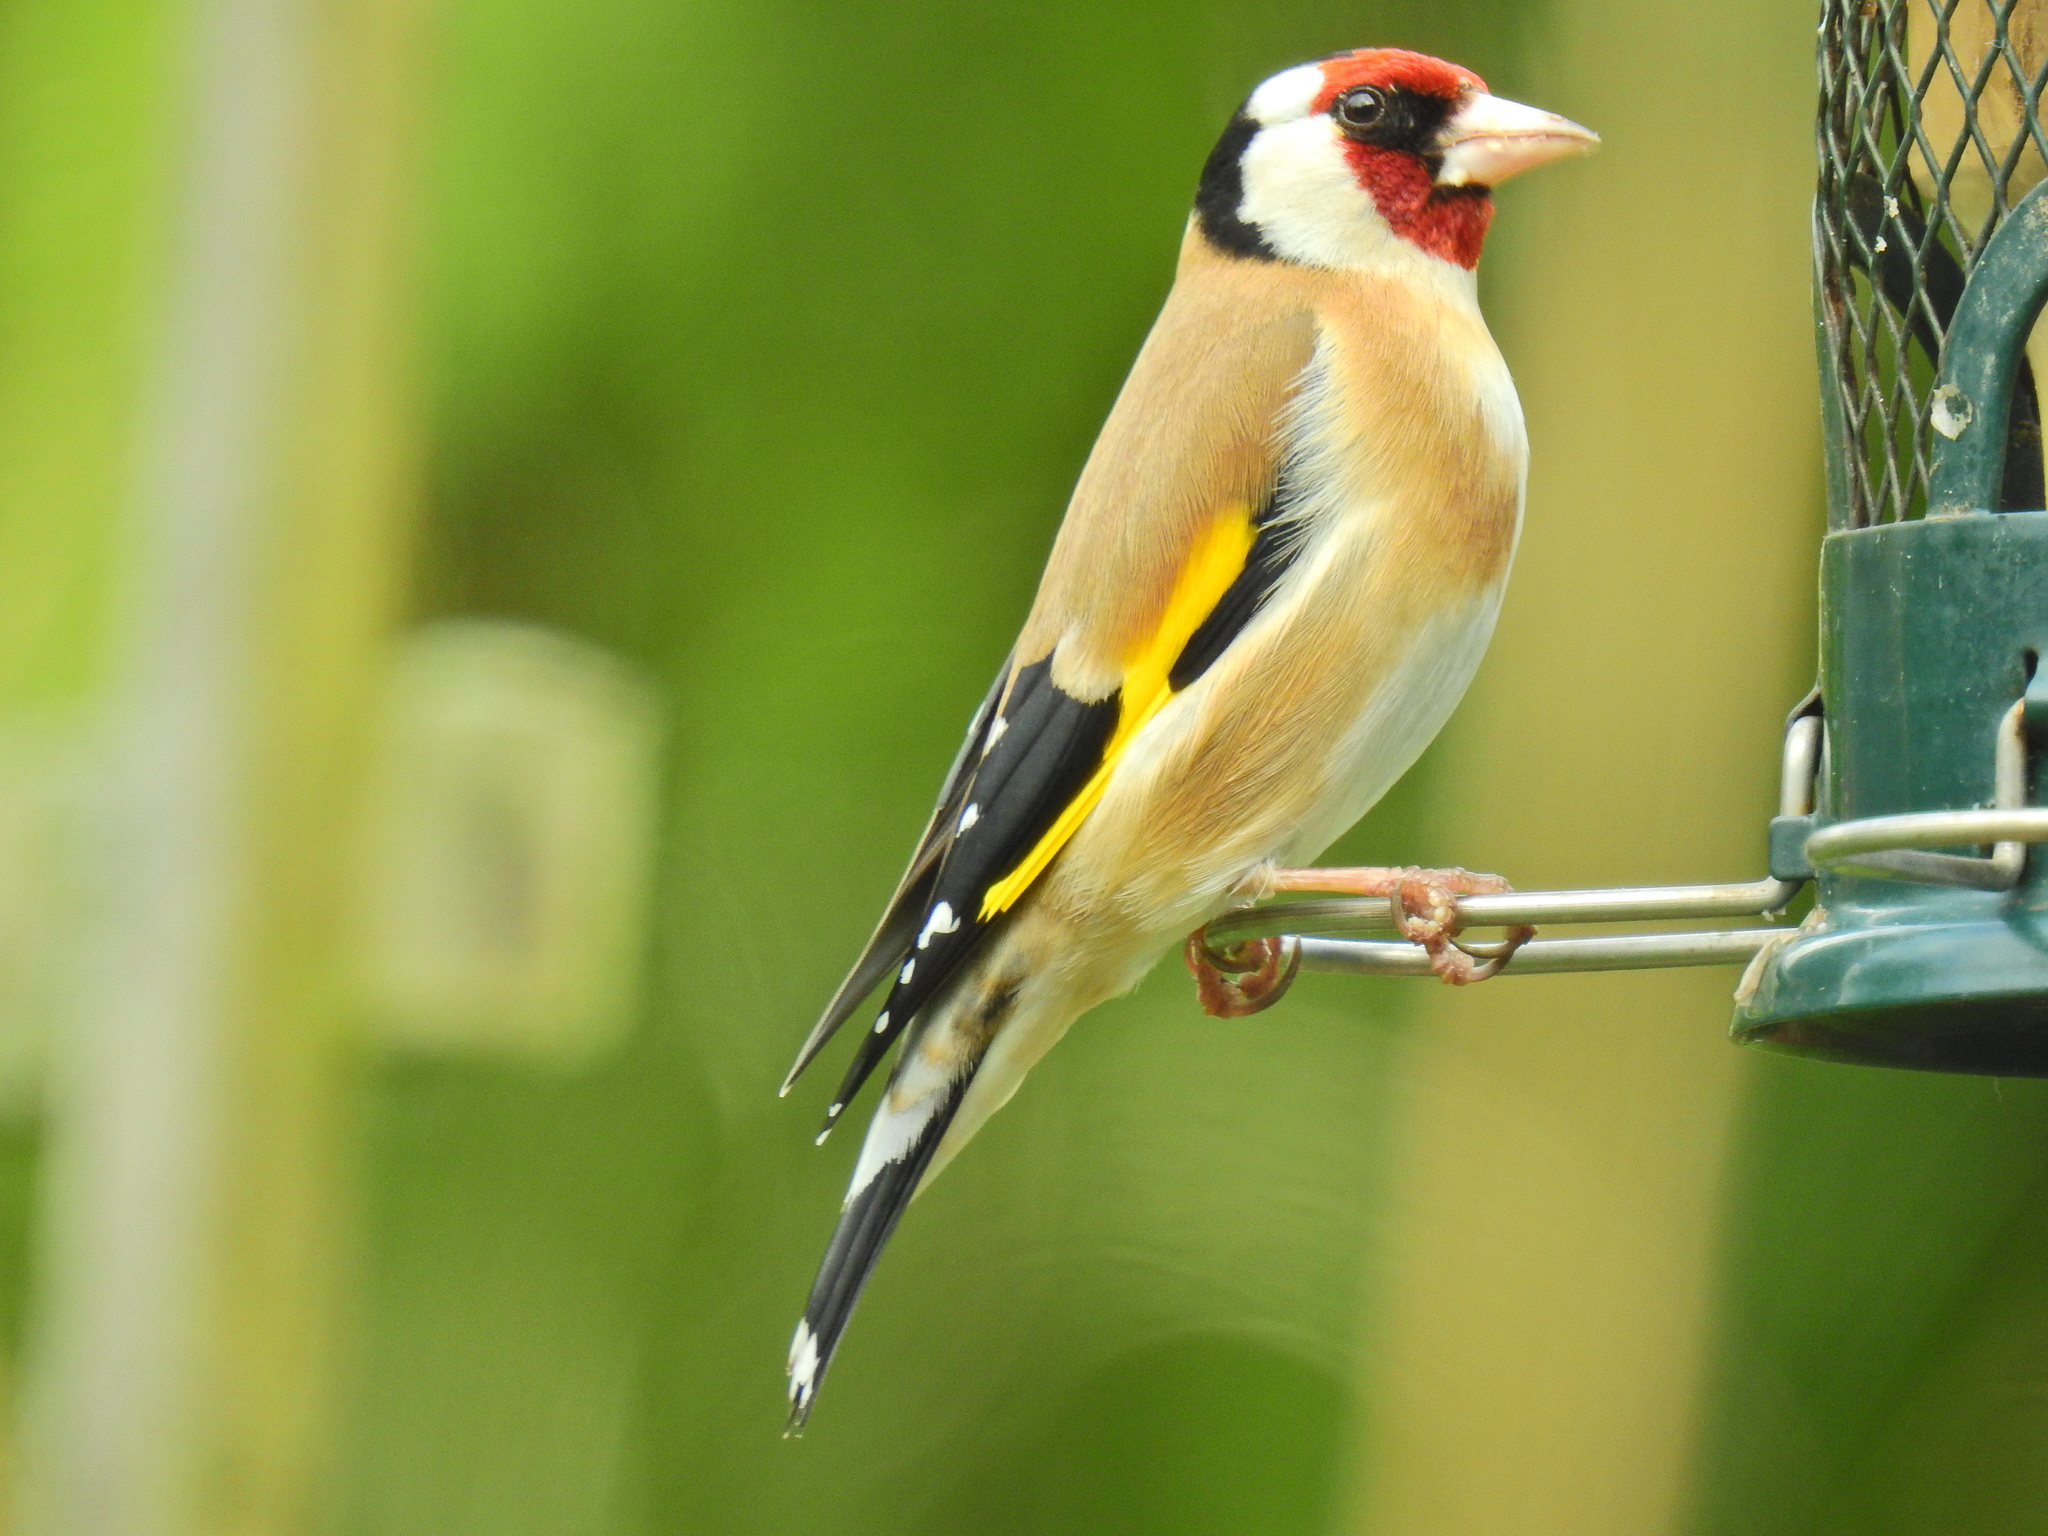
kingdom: Animalia
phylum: Chordata
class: Aves
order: Passeriformes
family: Fringillidae
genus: Carduelis
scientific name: Carduelis carduelis
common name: European goldfinch
